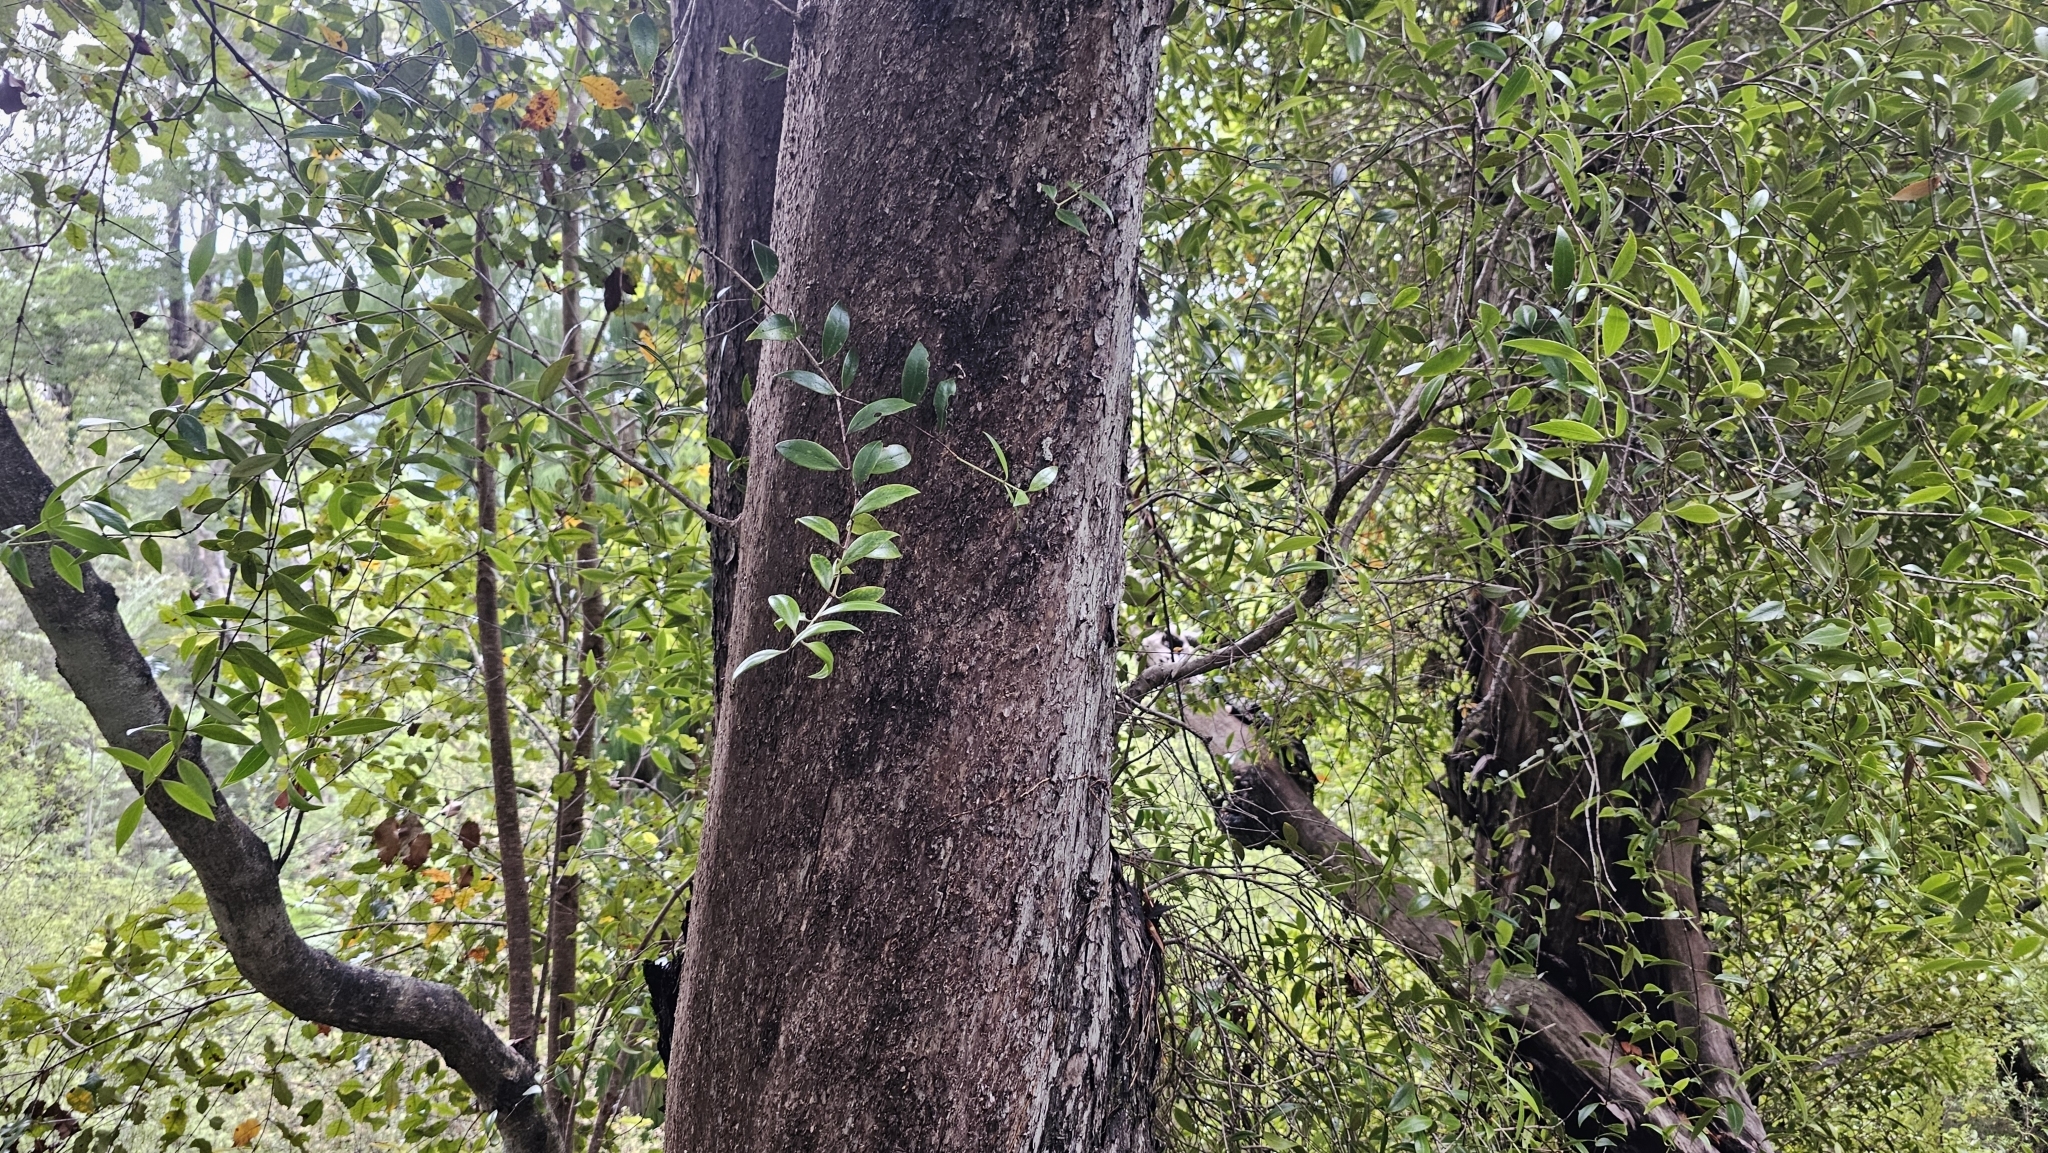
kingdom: Plantae
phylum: Tracheophyta
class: Magnoliopsida
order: Myrtales
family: Myrtaceae
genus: Metrosideros
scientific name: Metrosideros umbellata
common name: Southern rata
